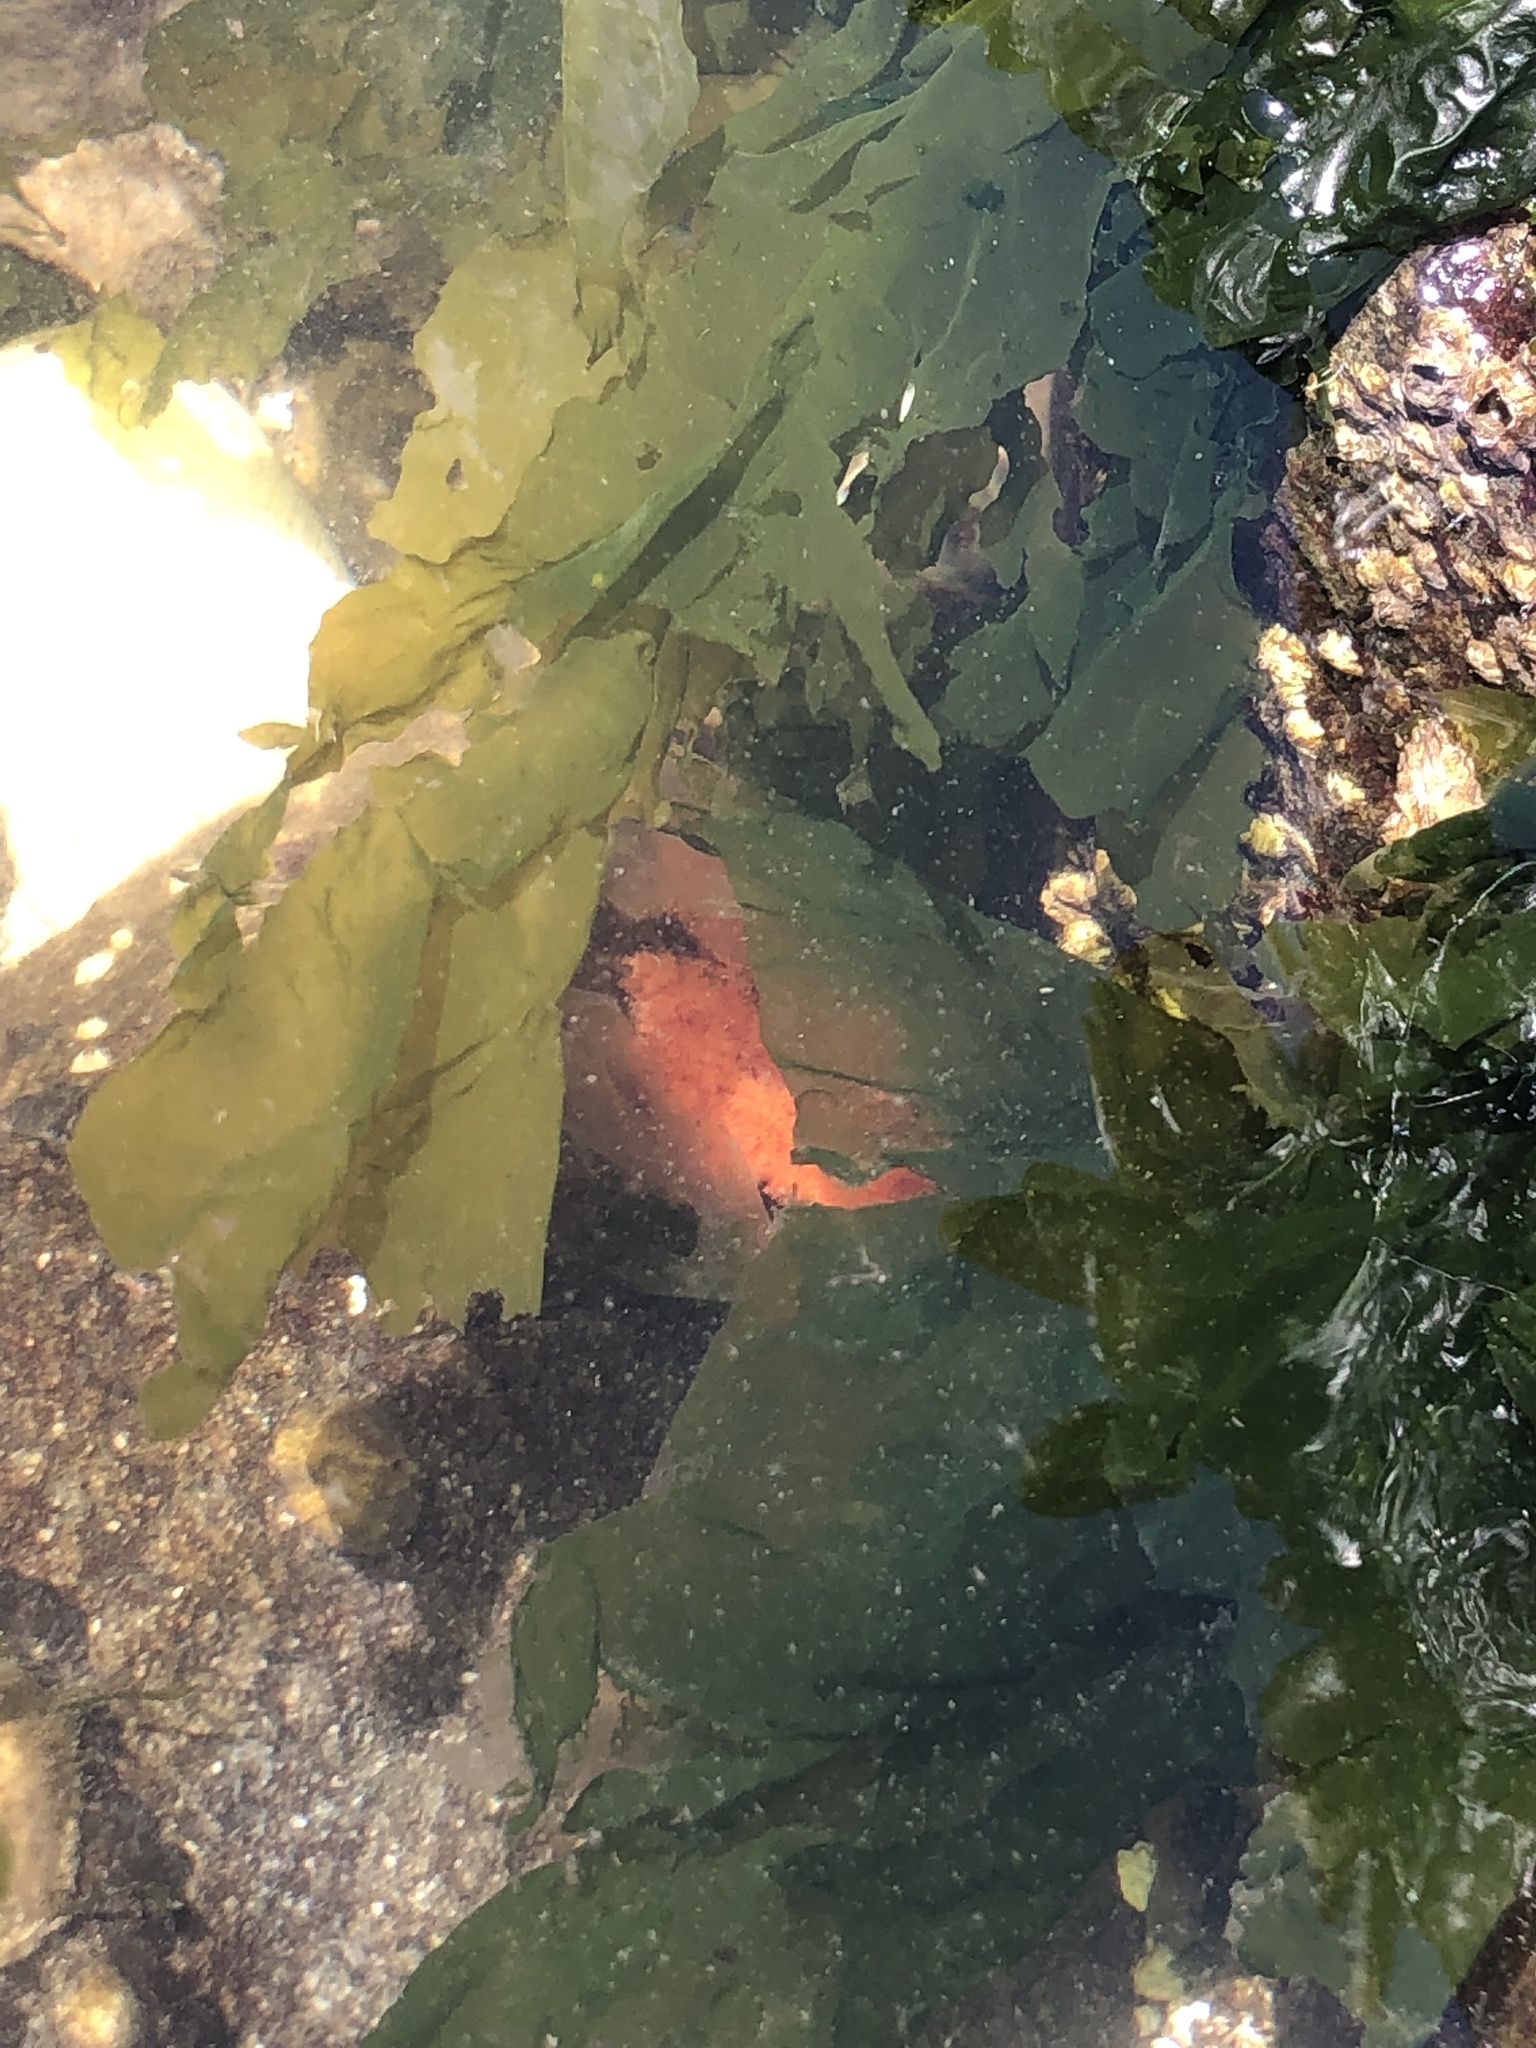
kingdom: Animalia
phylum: Echinodermata
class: Holothuroidea
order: Dendrochirotida
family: Cucumariidae
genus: Cucumaria
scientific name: Cucumaria miniata
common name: Orange sea cucumber
